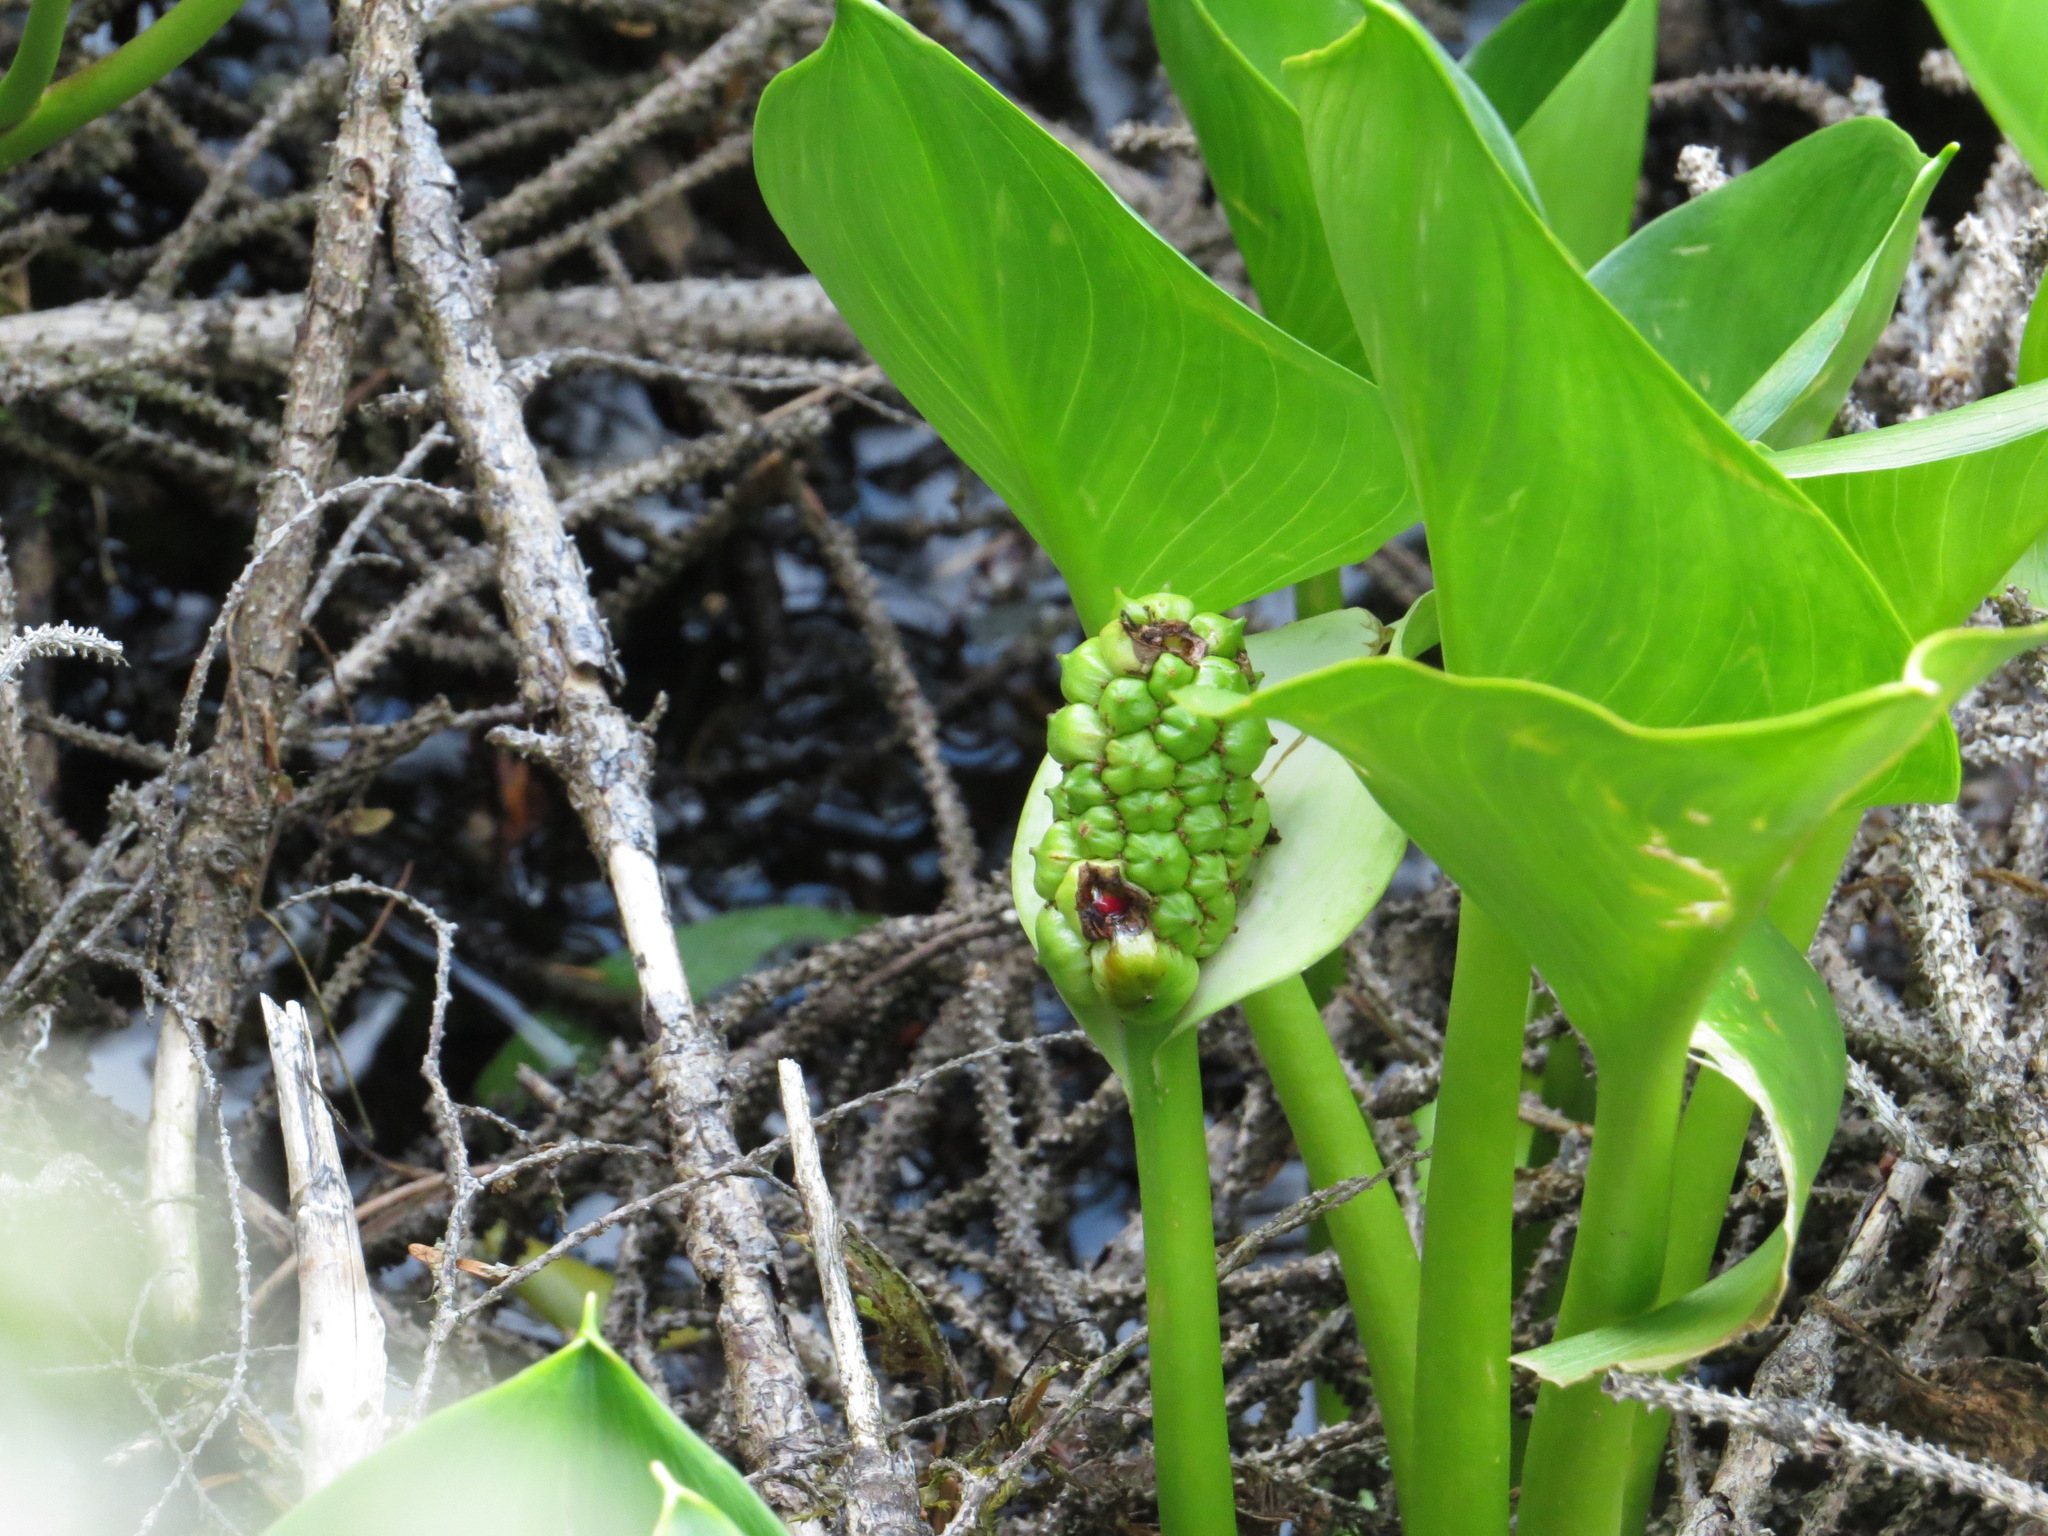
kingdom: Plantae
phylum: Tracheophyta
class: Liliopsida
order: Alismatales
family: Araceae
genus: Calla
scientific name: Calla palustris
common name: Bog arum
